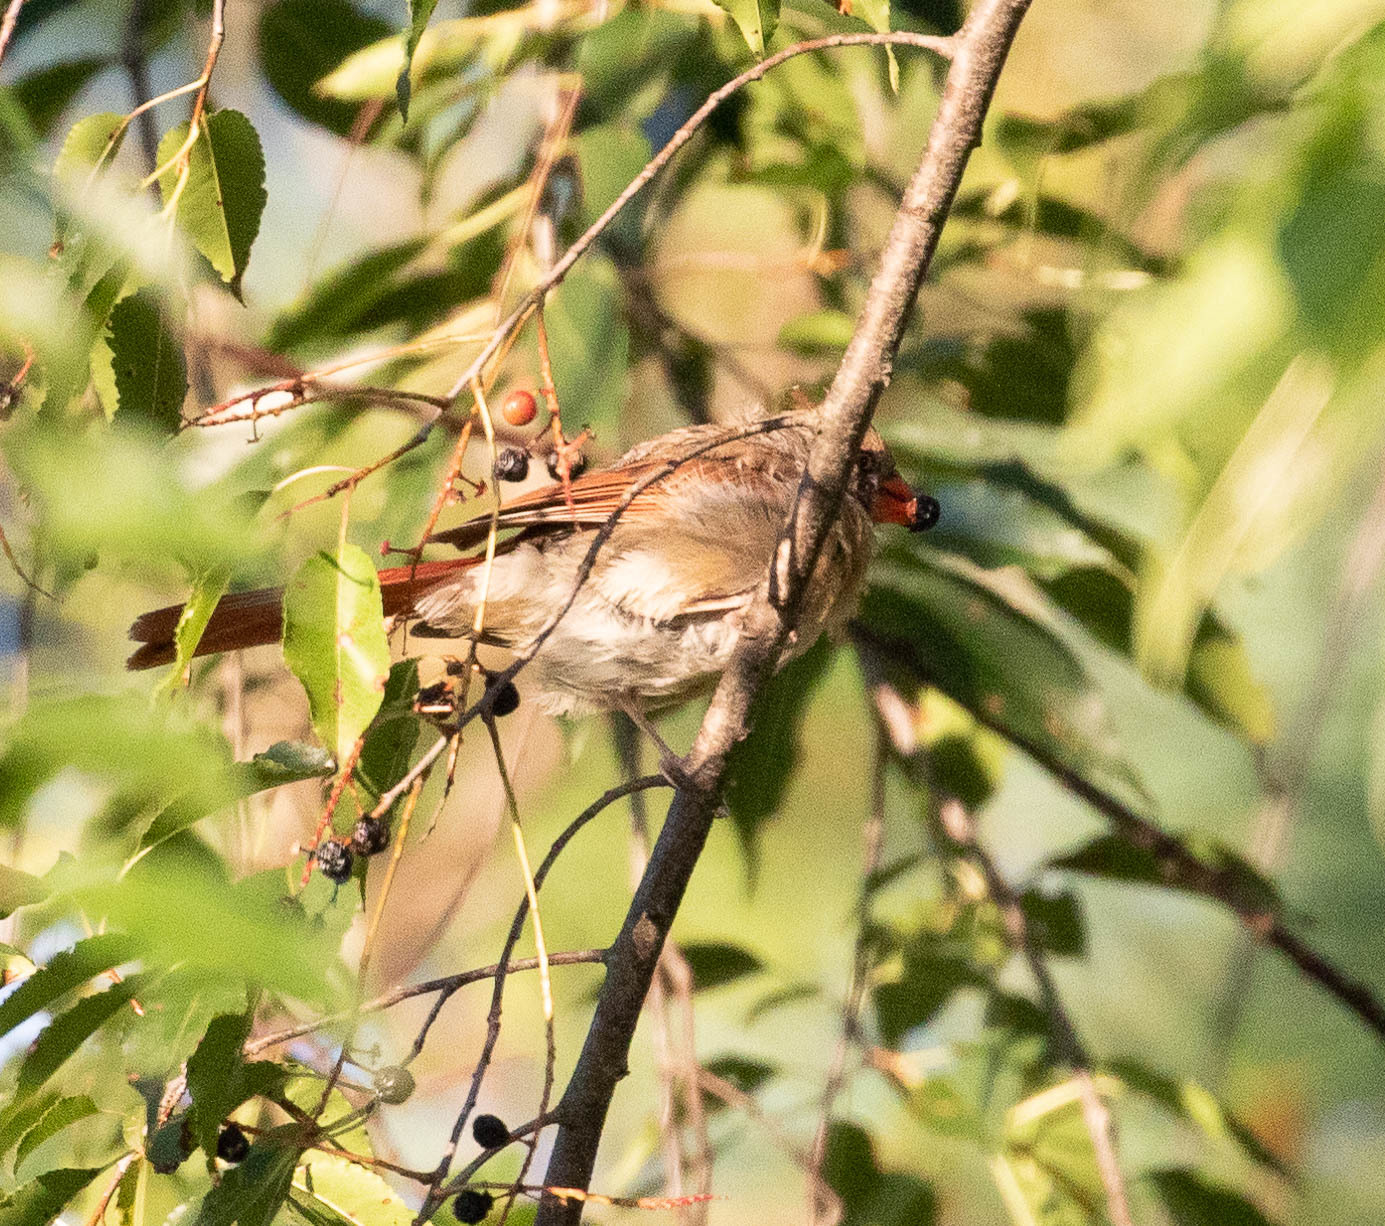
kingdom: Animalia
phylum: Chordata
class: Aves
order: Passeriformes
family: Cardinalidae
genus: Cardinalis
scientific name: Cardinalis cardinalis
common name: Northern cardinal
